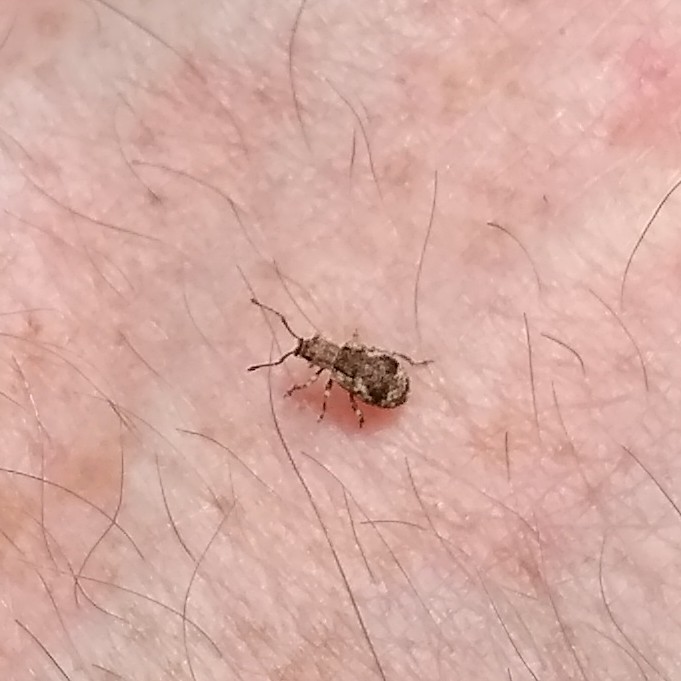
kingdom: Animalia
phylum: Arthropoda
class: Insecta
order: Coleoptera
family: Curculionidae
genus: Pseudoedophrys
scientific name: Pseudoedophrys hilleri
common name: Weevil
